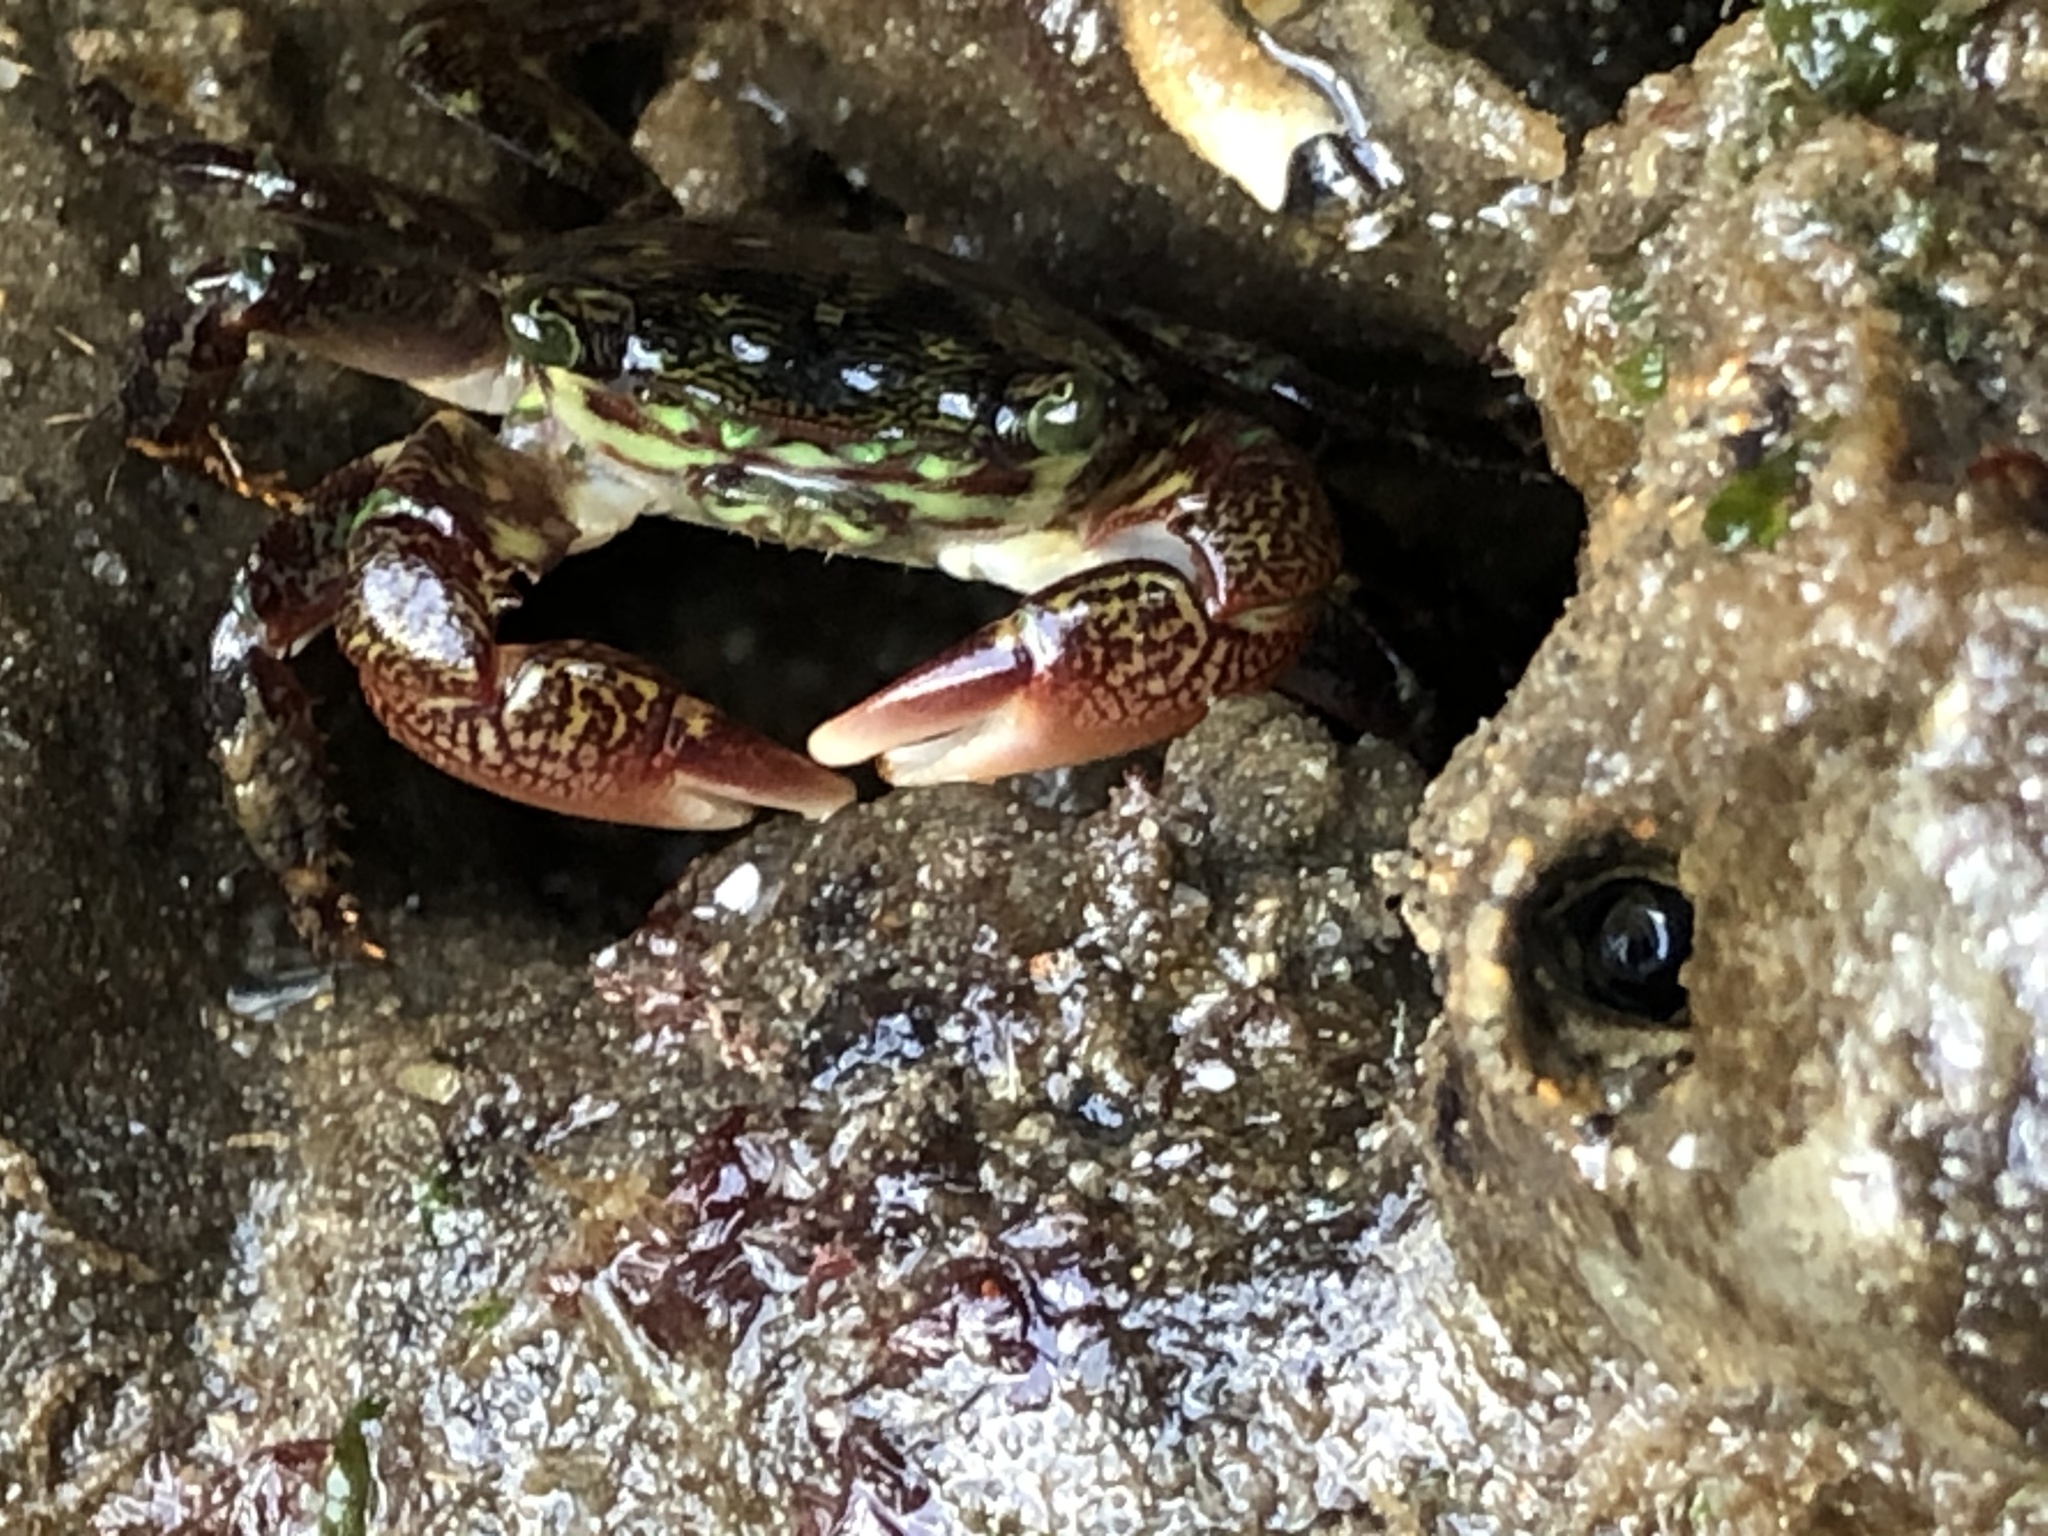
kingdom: Animalia
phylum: Arthropoda
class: Malacostraca
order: Decapoda
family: Grapsidae
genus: Pachygrapsus
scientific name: Pachygrapsus crassipes
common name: Striped shore crab
